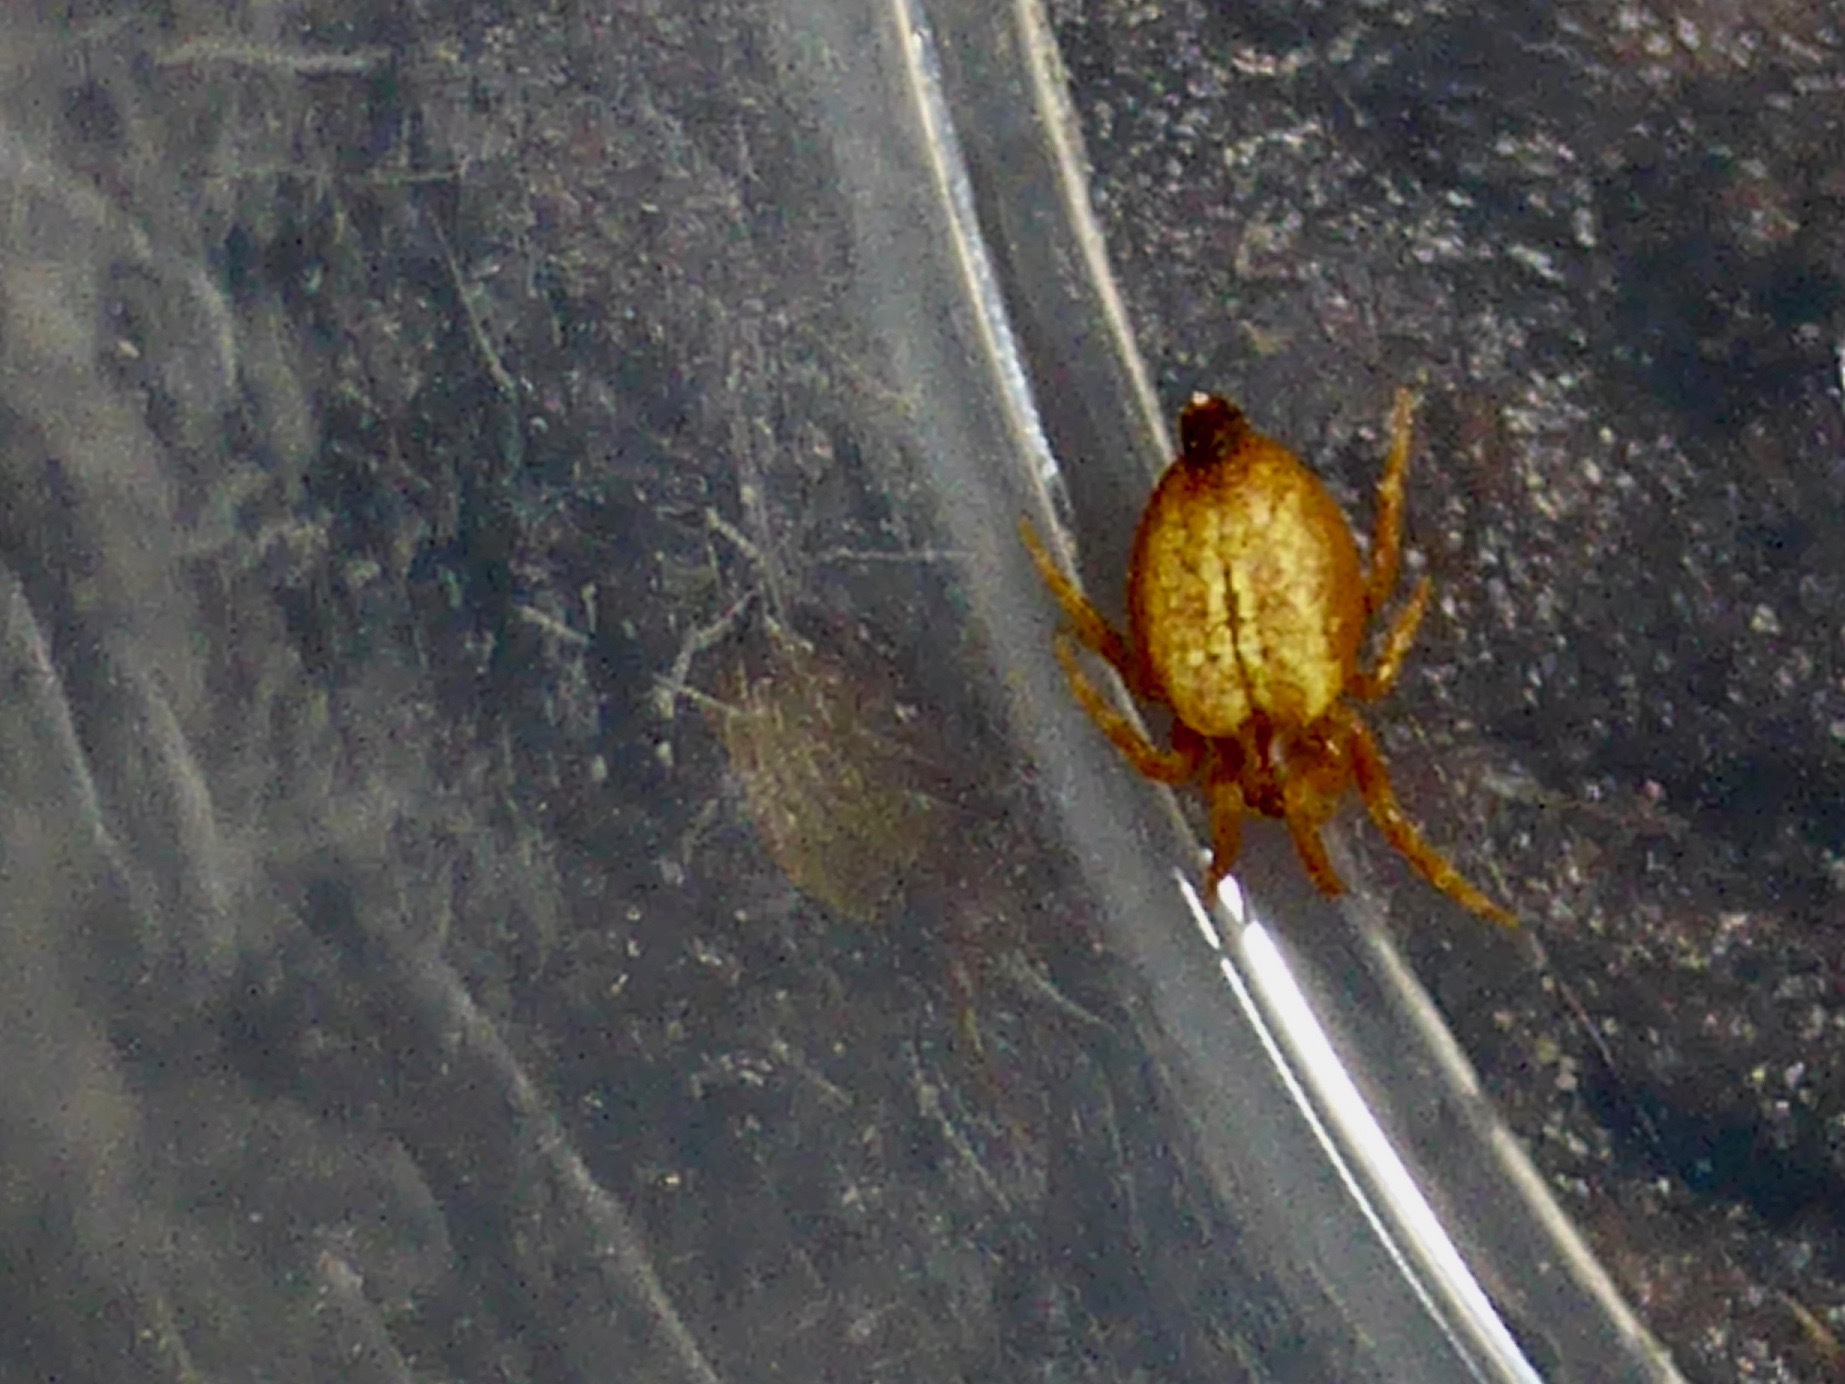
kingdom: Animalia
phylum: Arthropoda
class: Arachnida
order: Araneae
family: Araneidae
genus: Arachnura
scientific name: Arachnura feredayi
